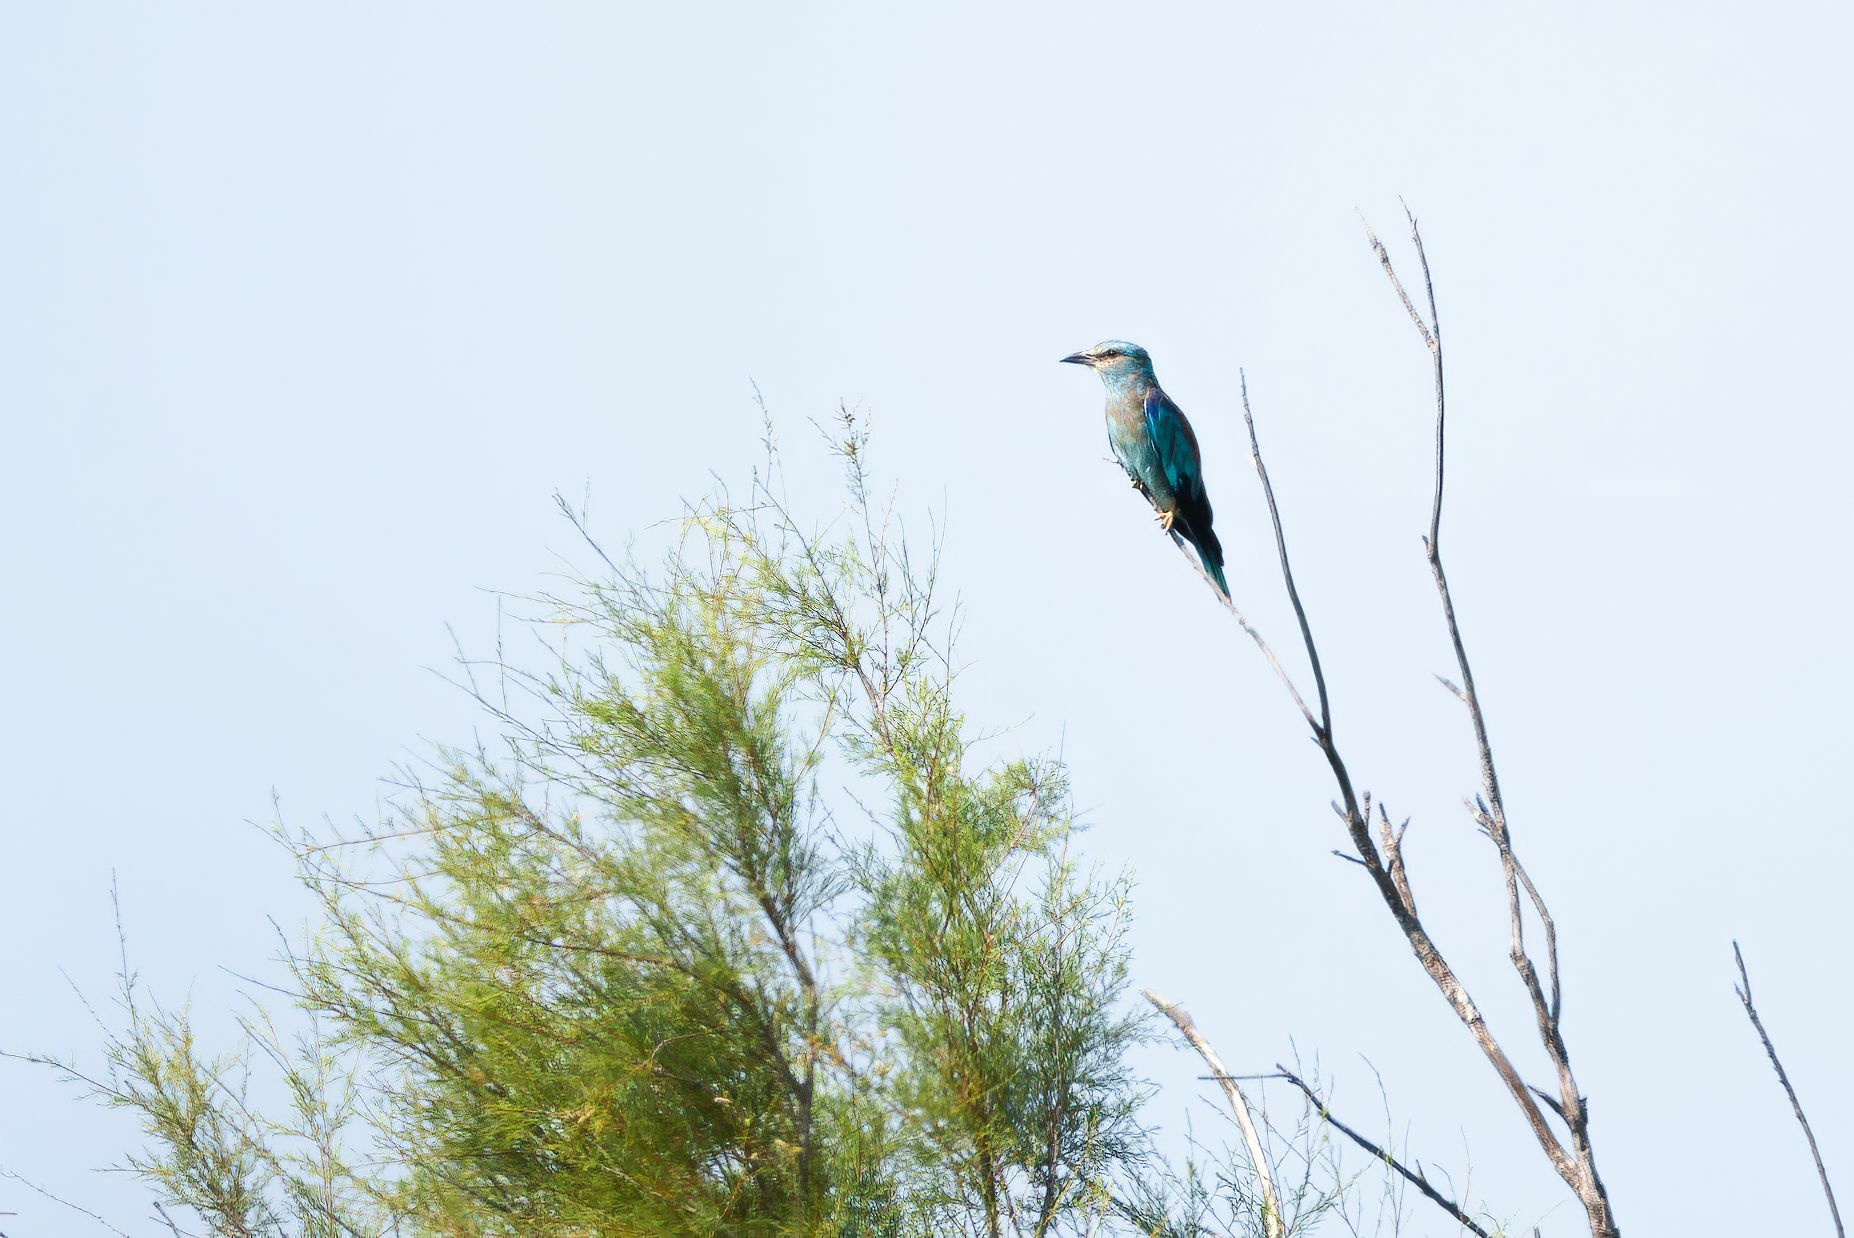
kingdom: Animalia
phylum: Chordata
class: Aves
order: Coraciiformes
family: Coraciidae
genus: Coracias
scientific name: Coracias garrulus
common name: European roller
